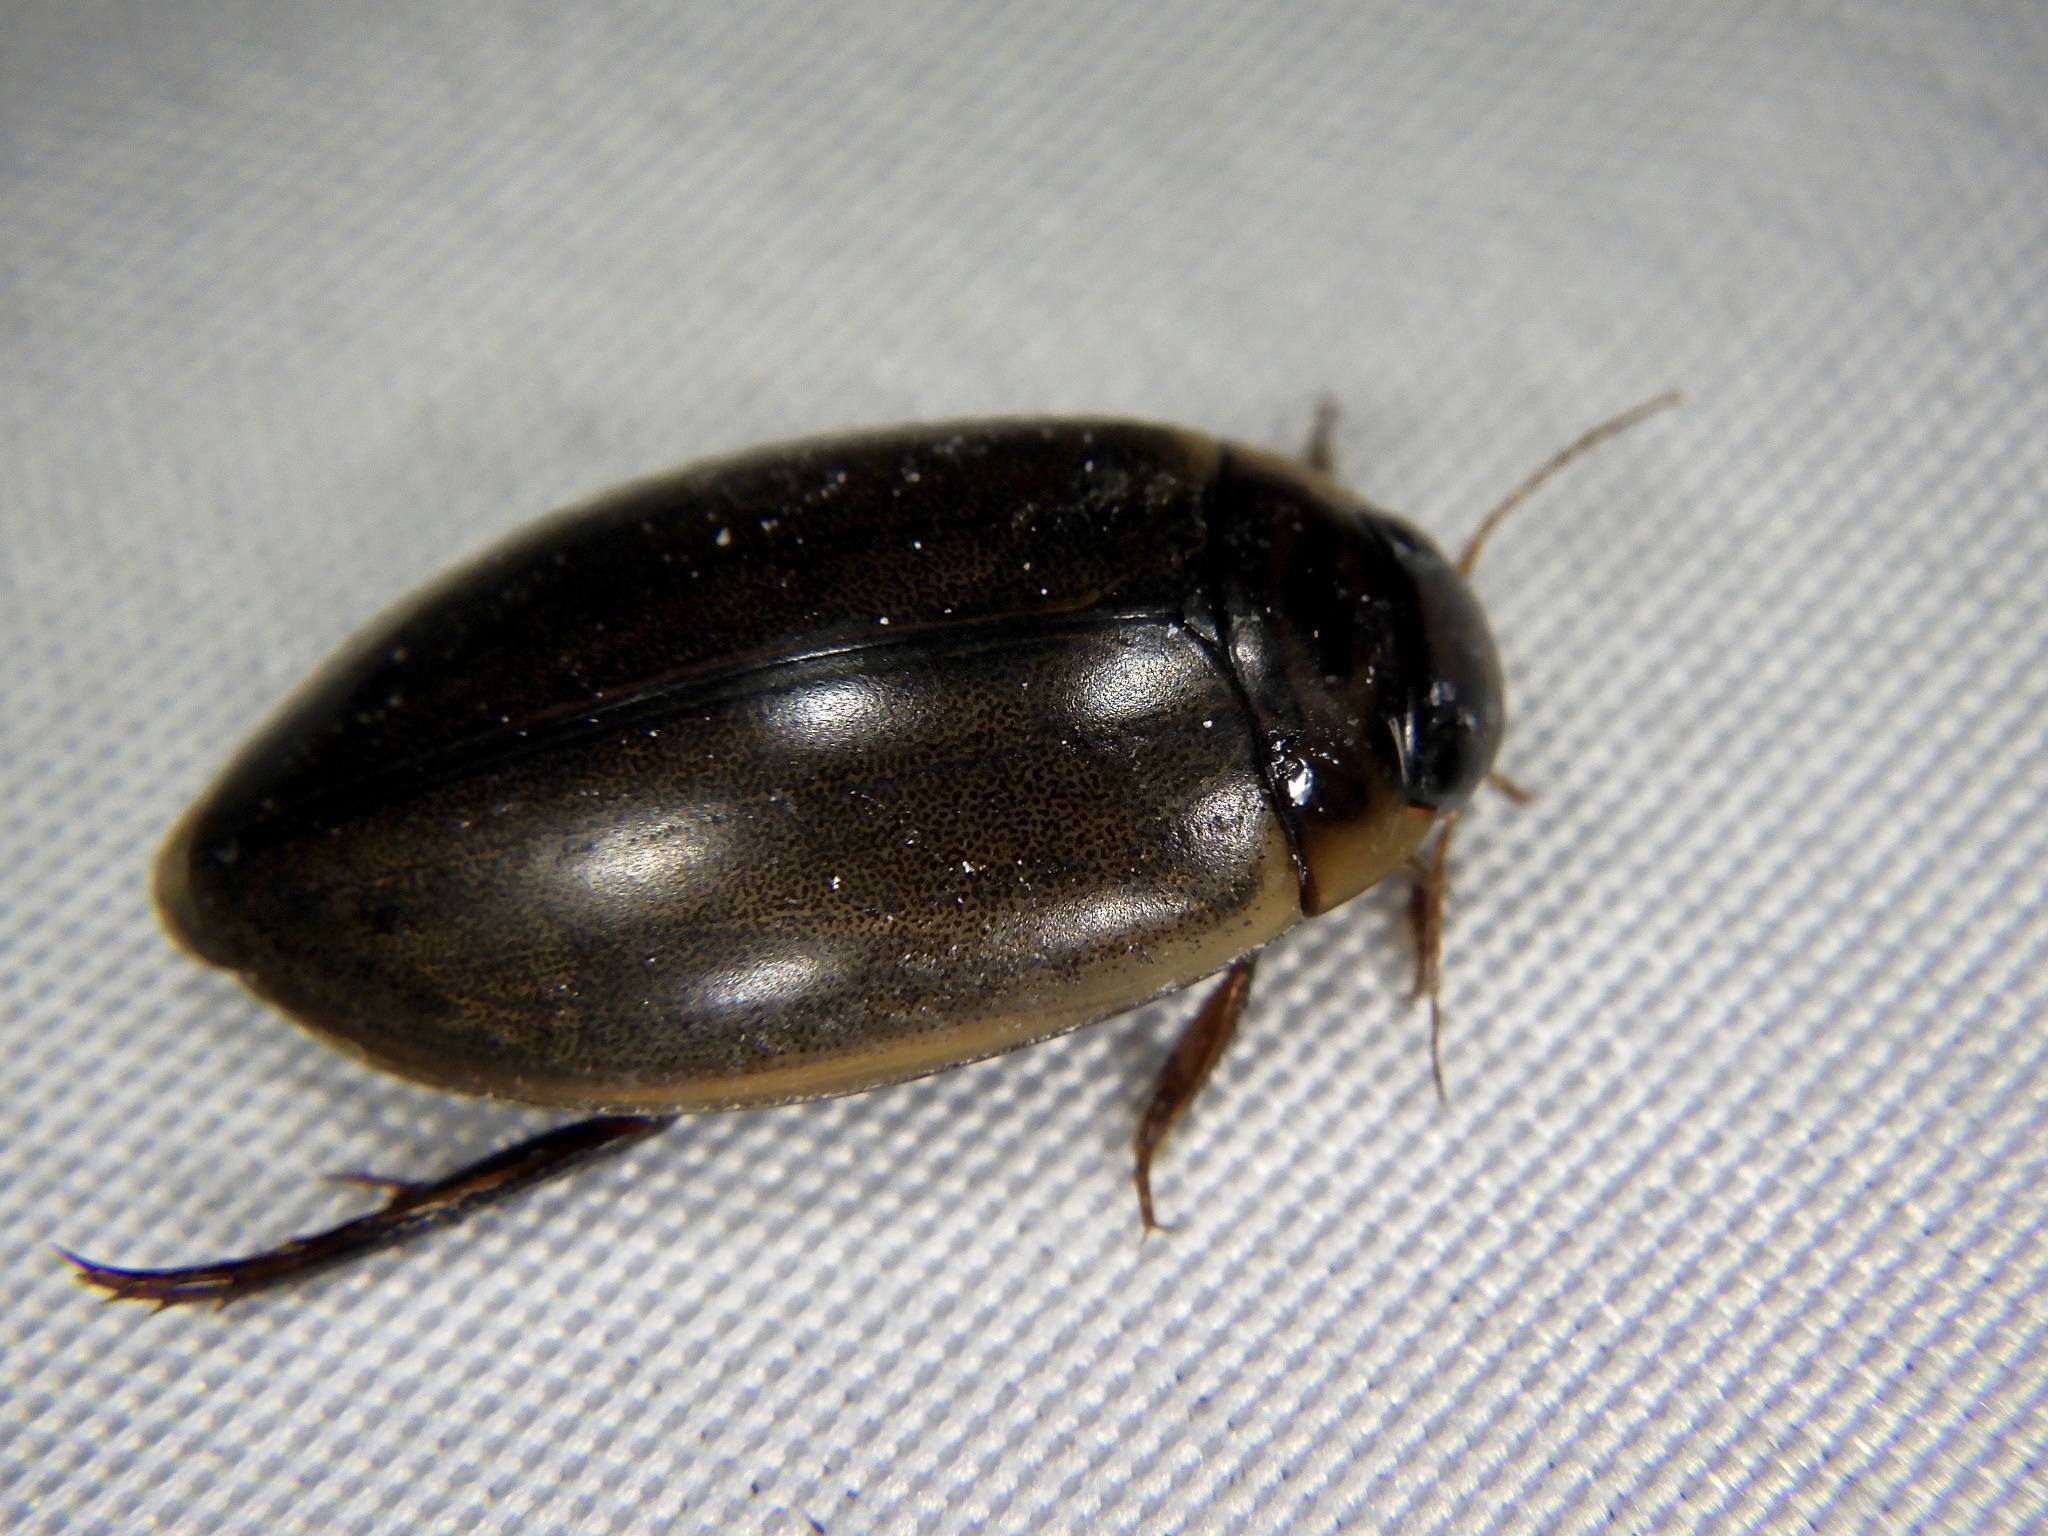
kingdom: Animalia
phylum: Arthropoda
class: Insecta
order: Coleoptera
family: Dytiscidae
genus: Rhantus
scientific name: Rhantus suturalis
